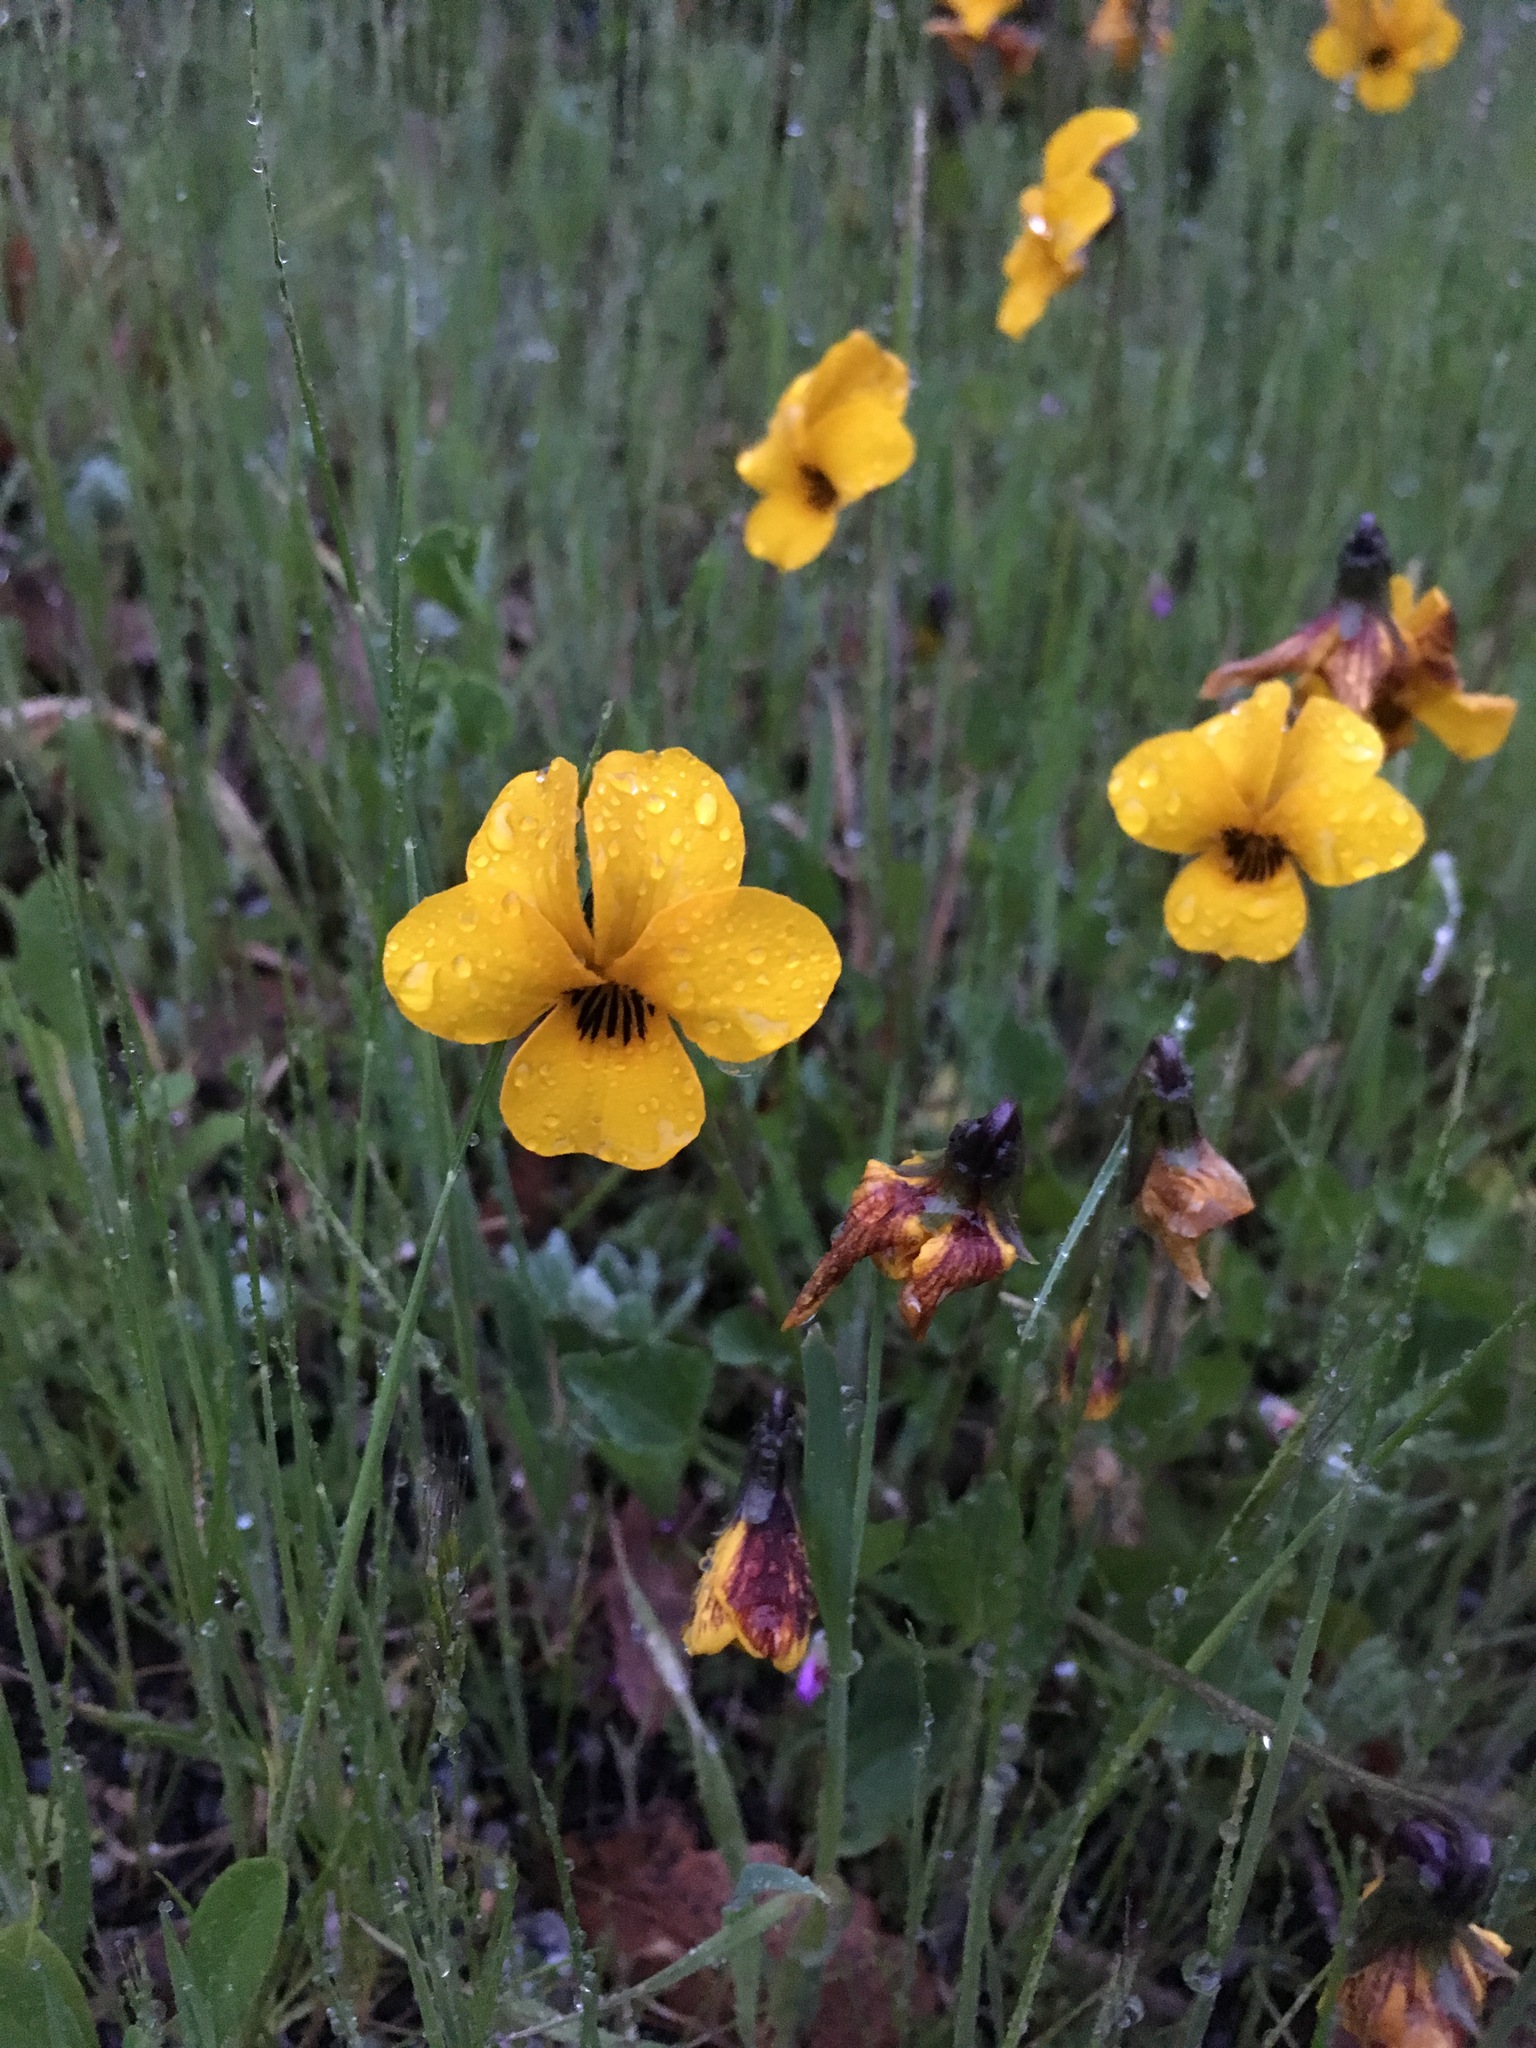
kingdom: Plantae
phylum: Tracheophyta
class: Magnoliopsida
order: Malpighiales
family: Violaceae
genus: Viola
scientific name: Viola pedunculata
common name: California golden violet
